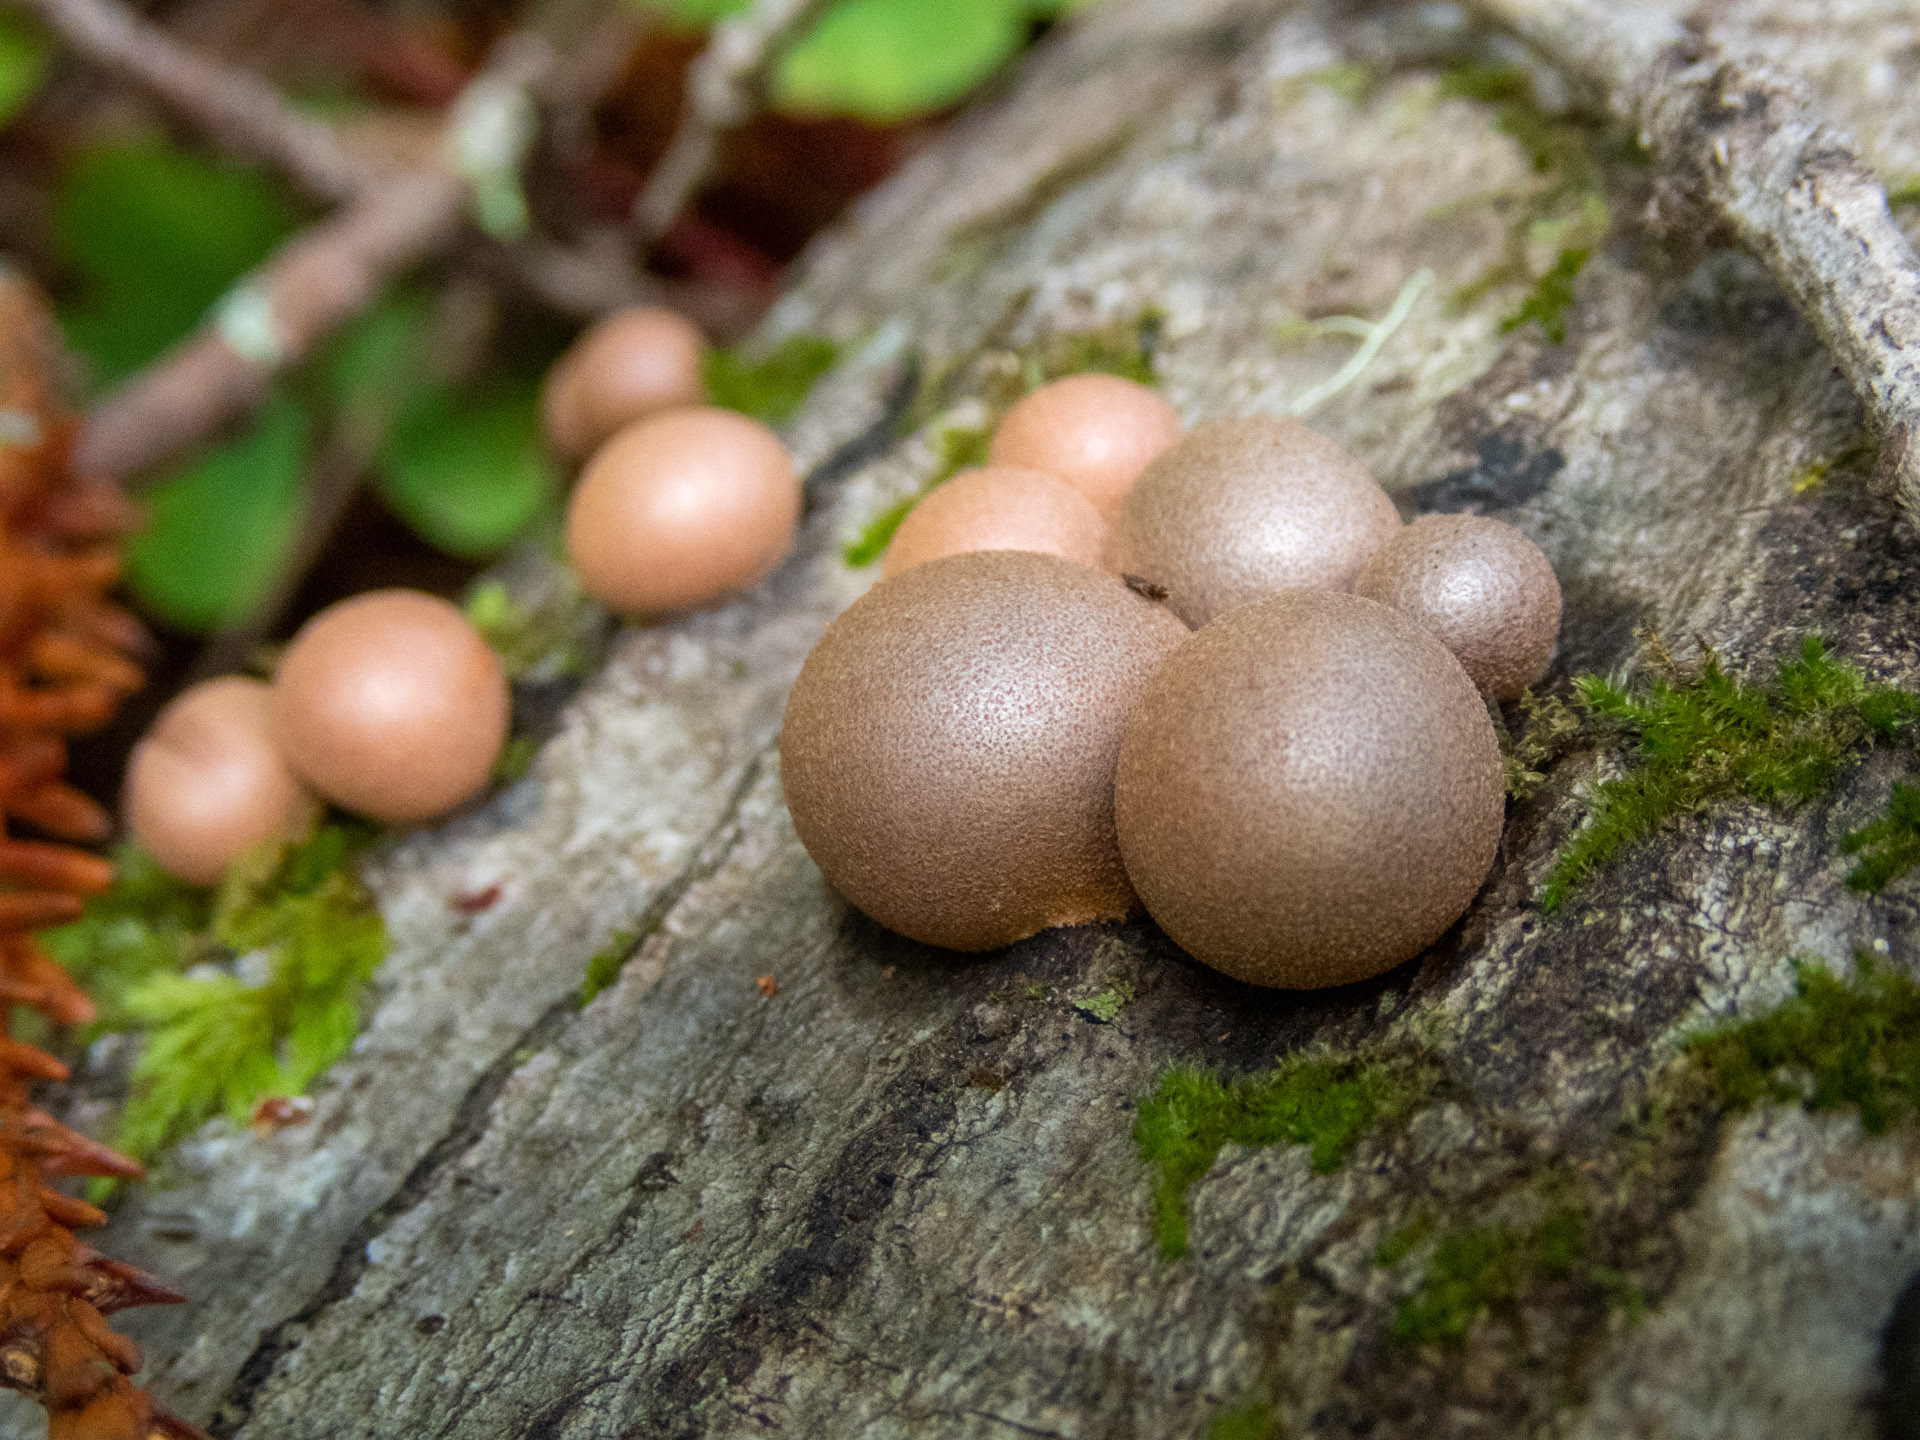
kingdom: Protozoa
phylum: Mycetozoa
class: Myxomycetes
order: Cribrariales
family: Tubiferaceae
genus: Lycogala
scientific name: Lycogala epidendrum
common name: Wolf's milk
